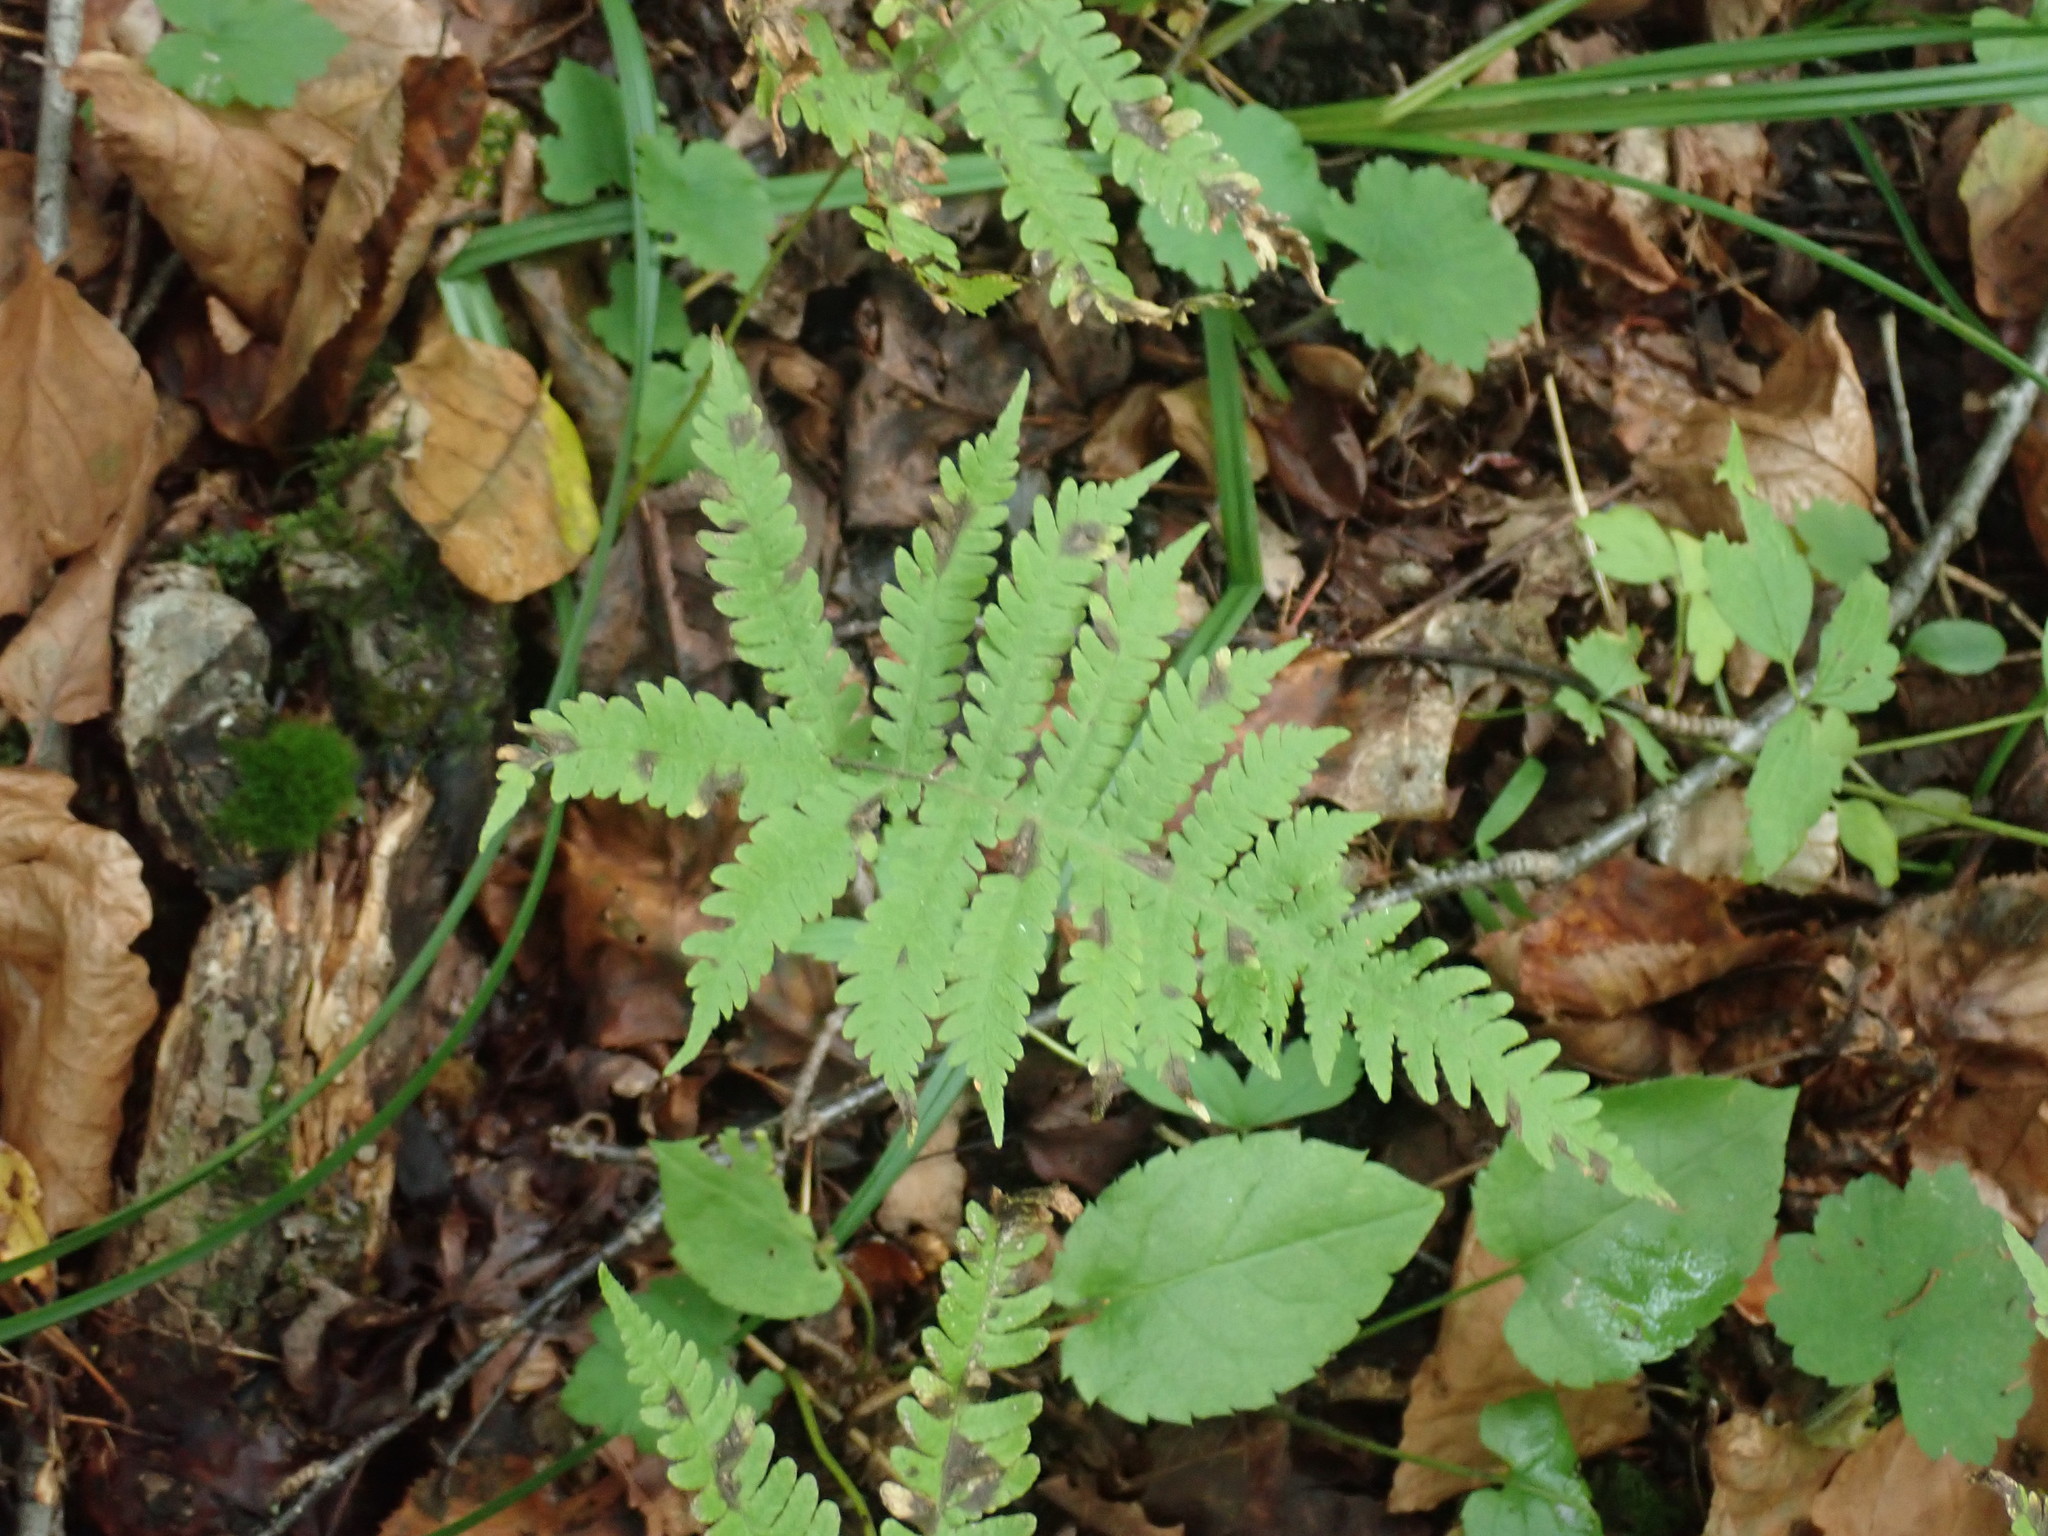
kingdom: Plantae
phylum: Tracheophyta
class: Polypodiopsida
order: Polypodiales
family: Thelypteridaceae
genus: Phegopteris
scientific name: Phegopteris connectilis
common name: Beech fern
